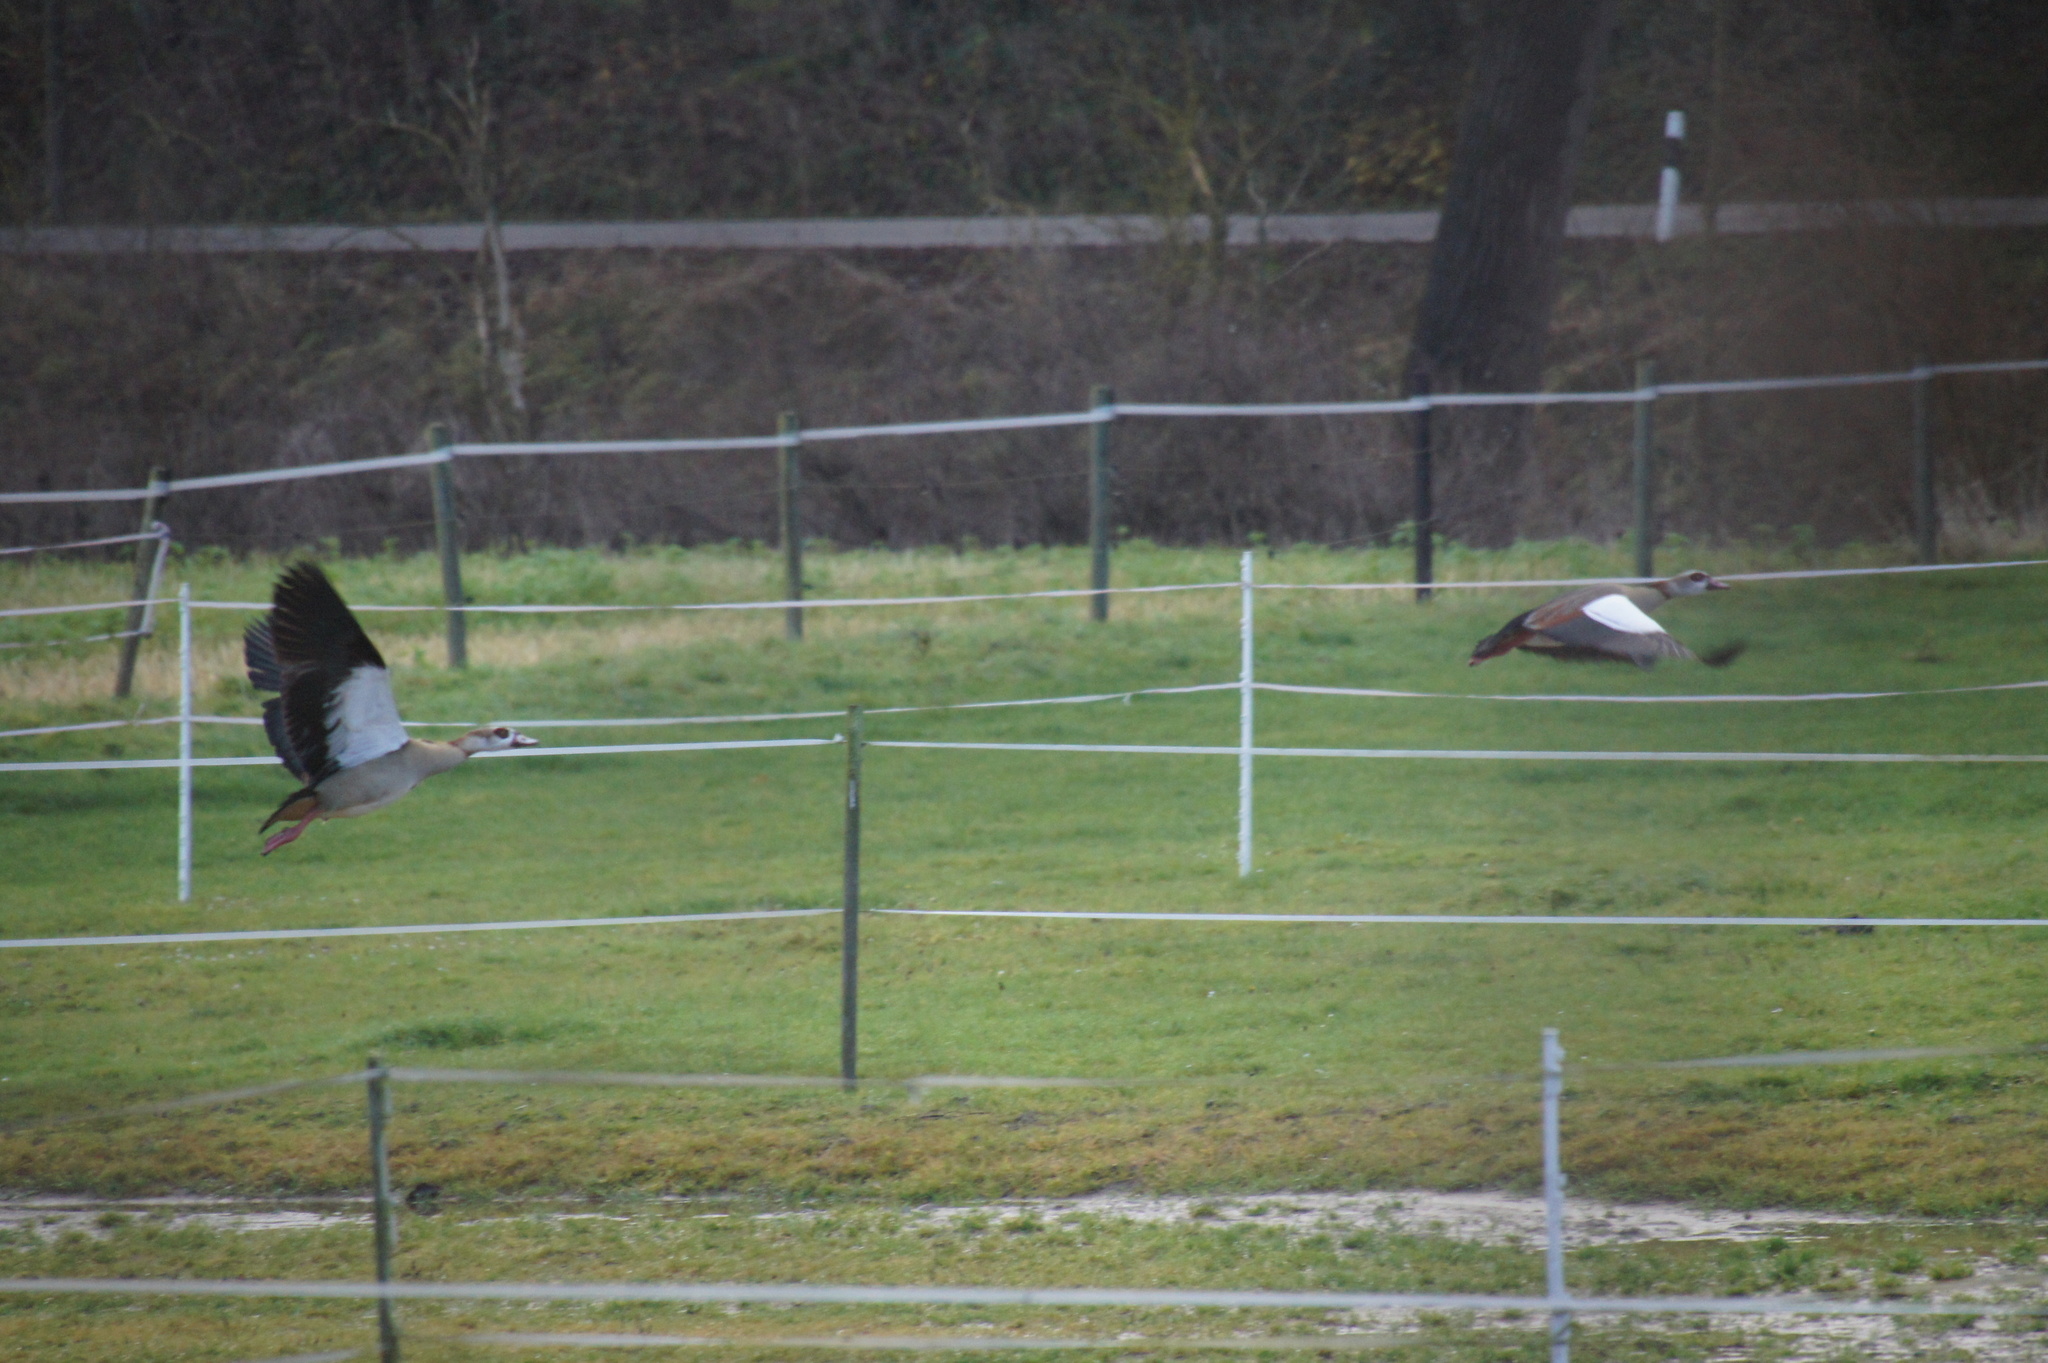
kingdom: Animalia
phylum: Chordata
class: Aves
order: Anseriformes
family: Anatidae
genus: Alopochen
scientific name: Alopochen aegyptiaca
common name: Egyptian goose
